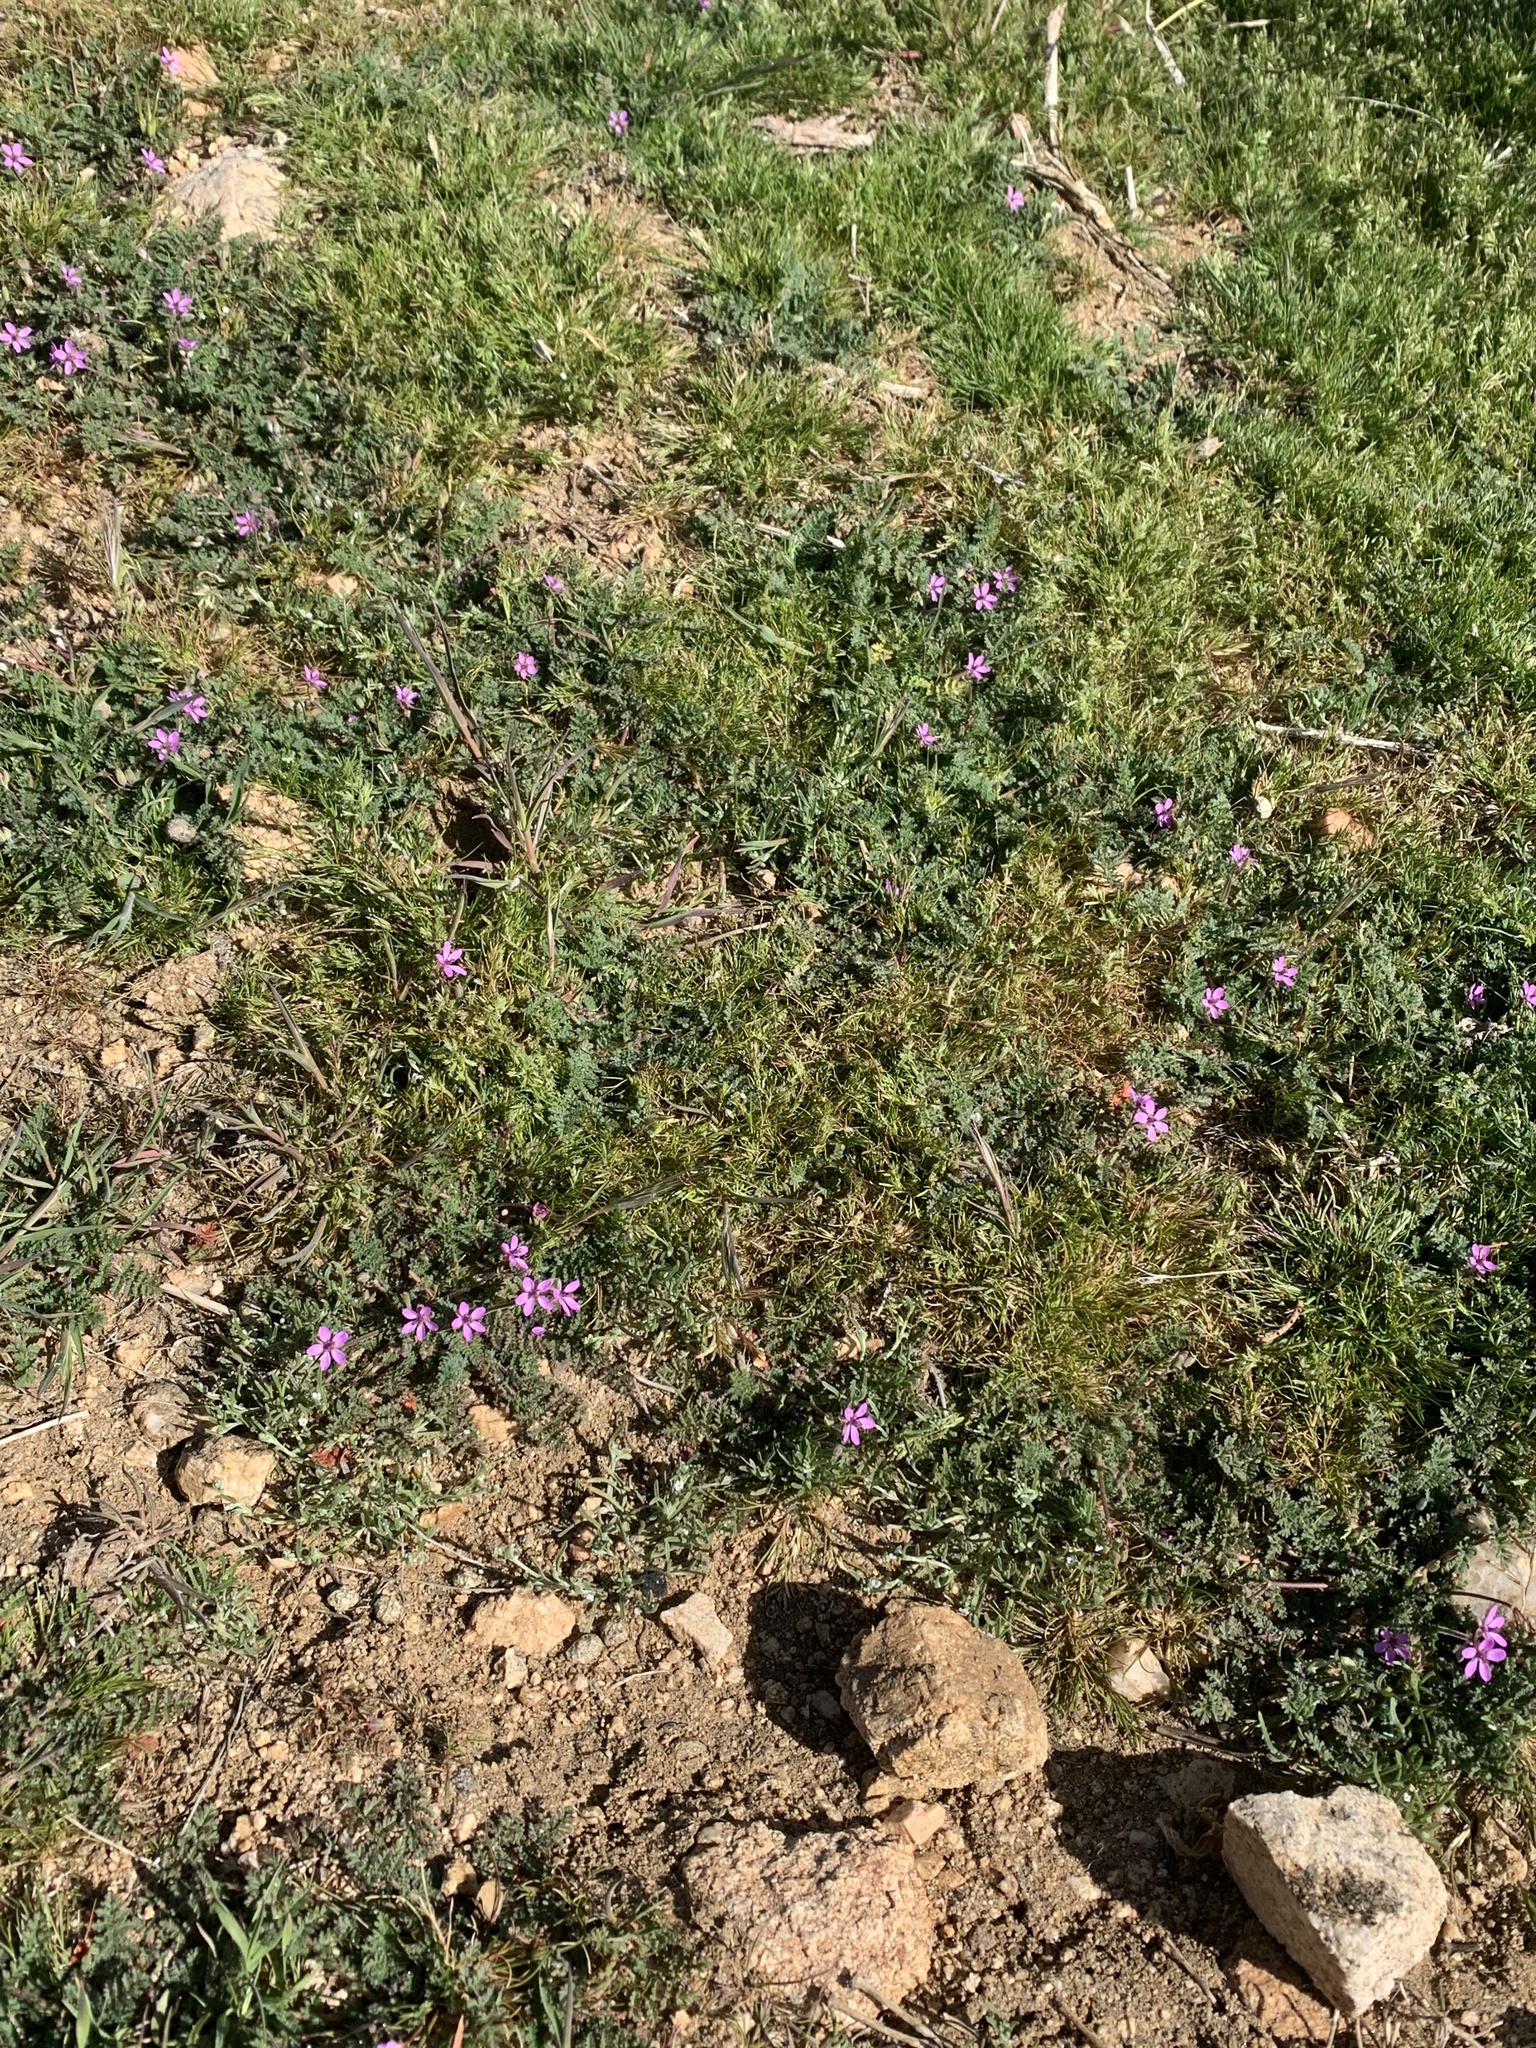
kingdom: Plantae
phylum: Tracheophyta
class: Magnoliopsida
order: Geraniales
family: Geraniaceae
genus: Erodium
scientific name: Erodium cicutarium
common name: Common stork's-bill
